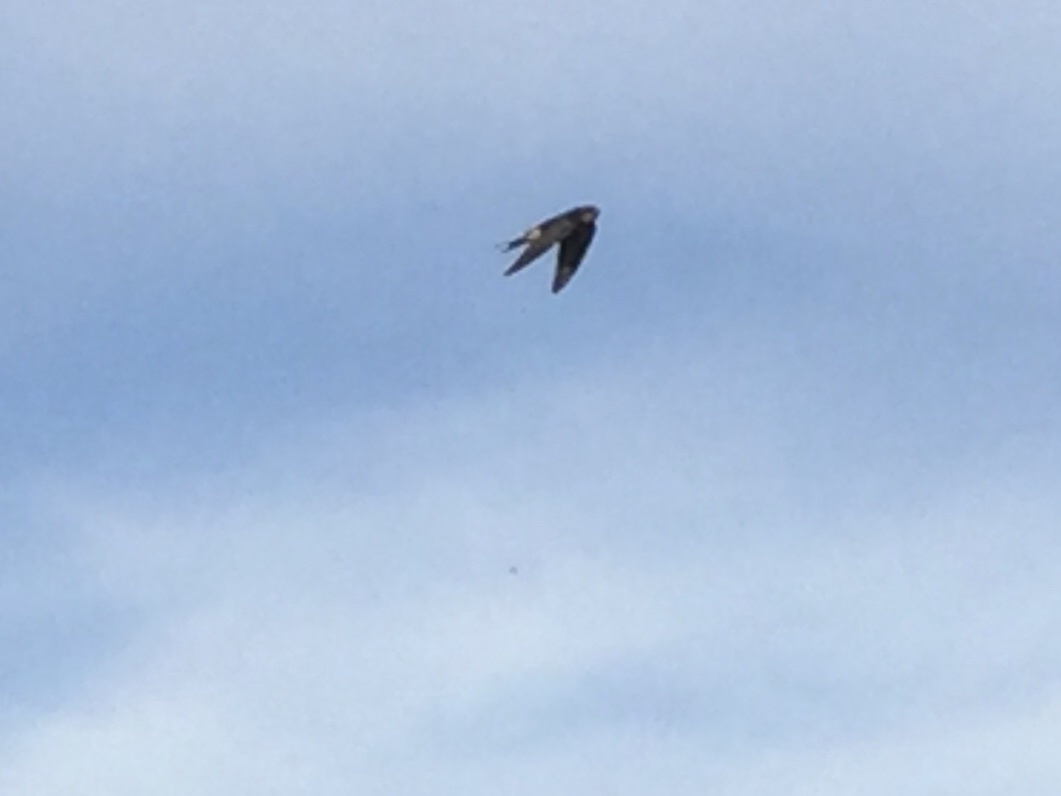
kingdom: Animalia
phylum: Chordata
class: Aves
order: Passeriformes
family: Hirundinidae
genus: Hirundo
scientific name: Hirundo rustica
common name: Barn swallow
